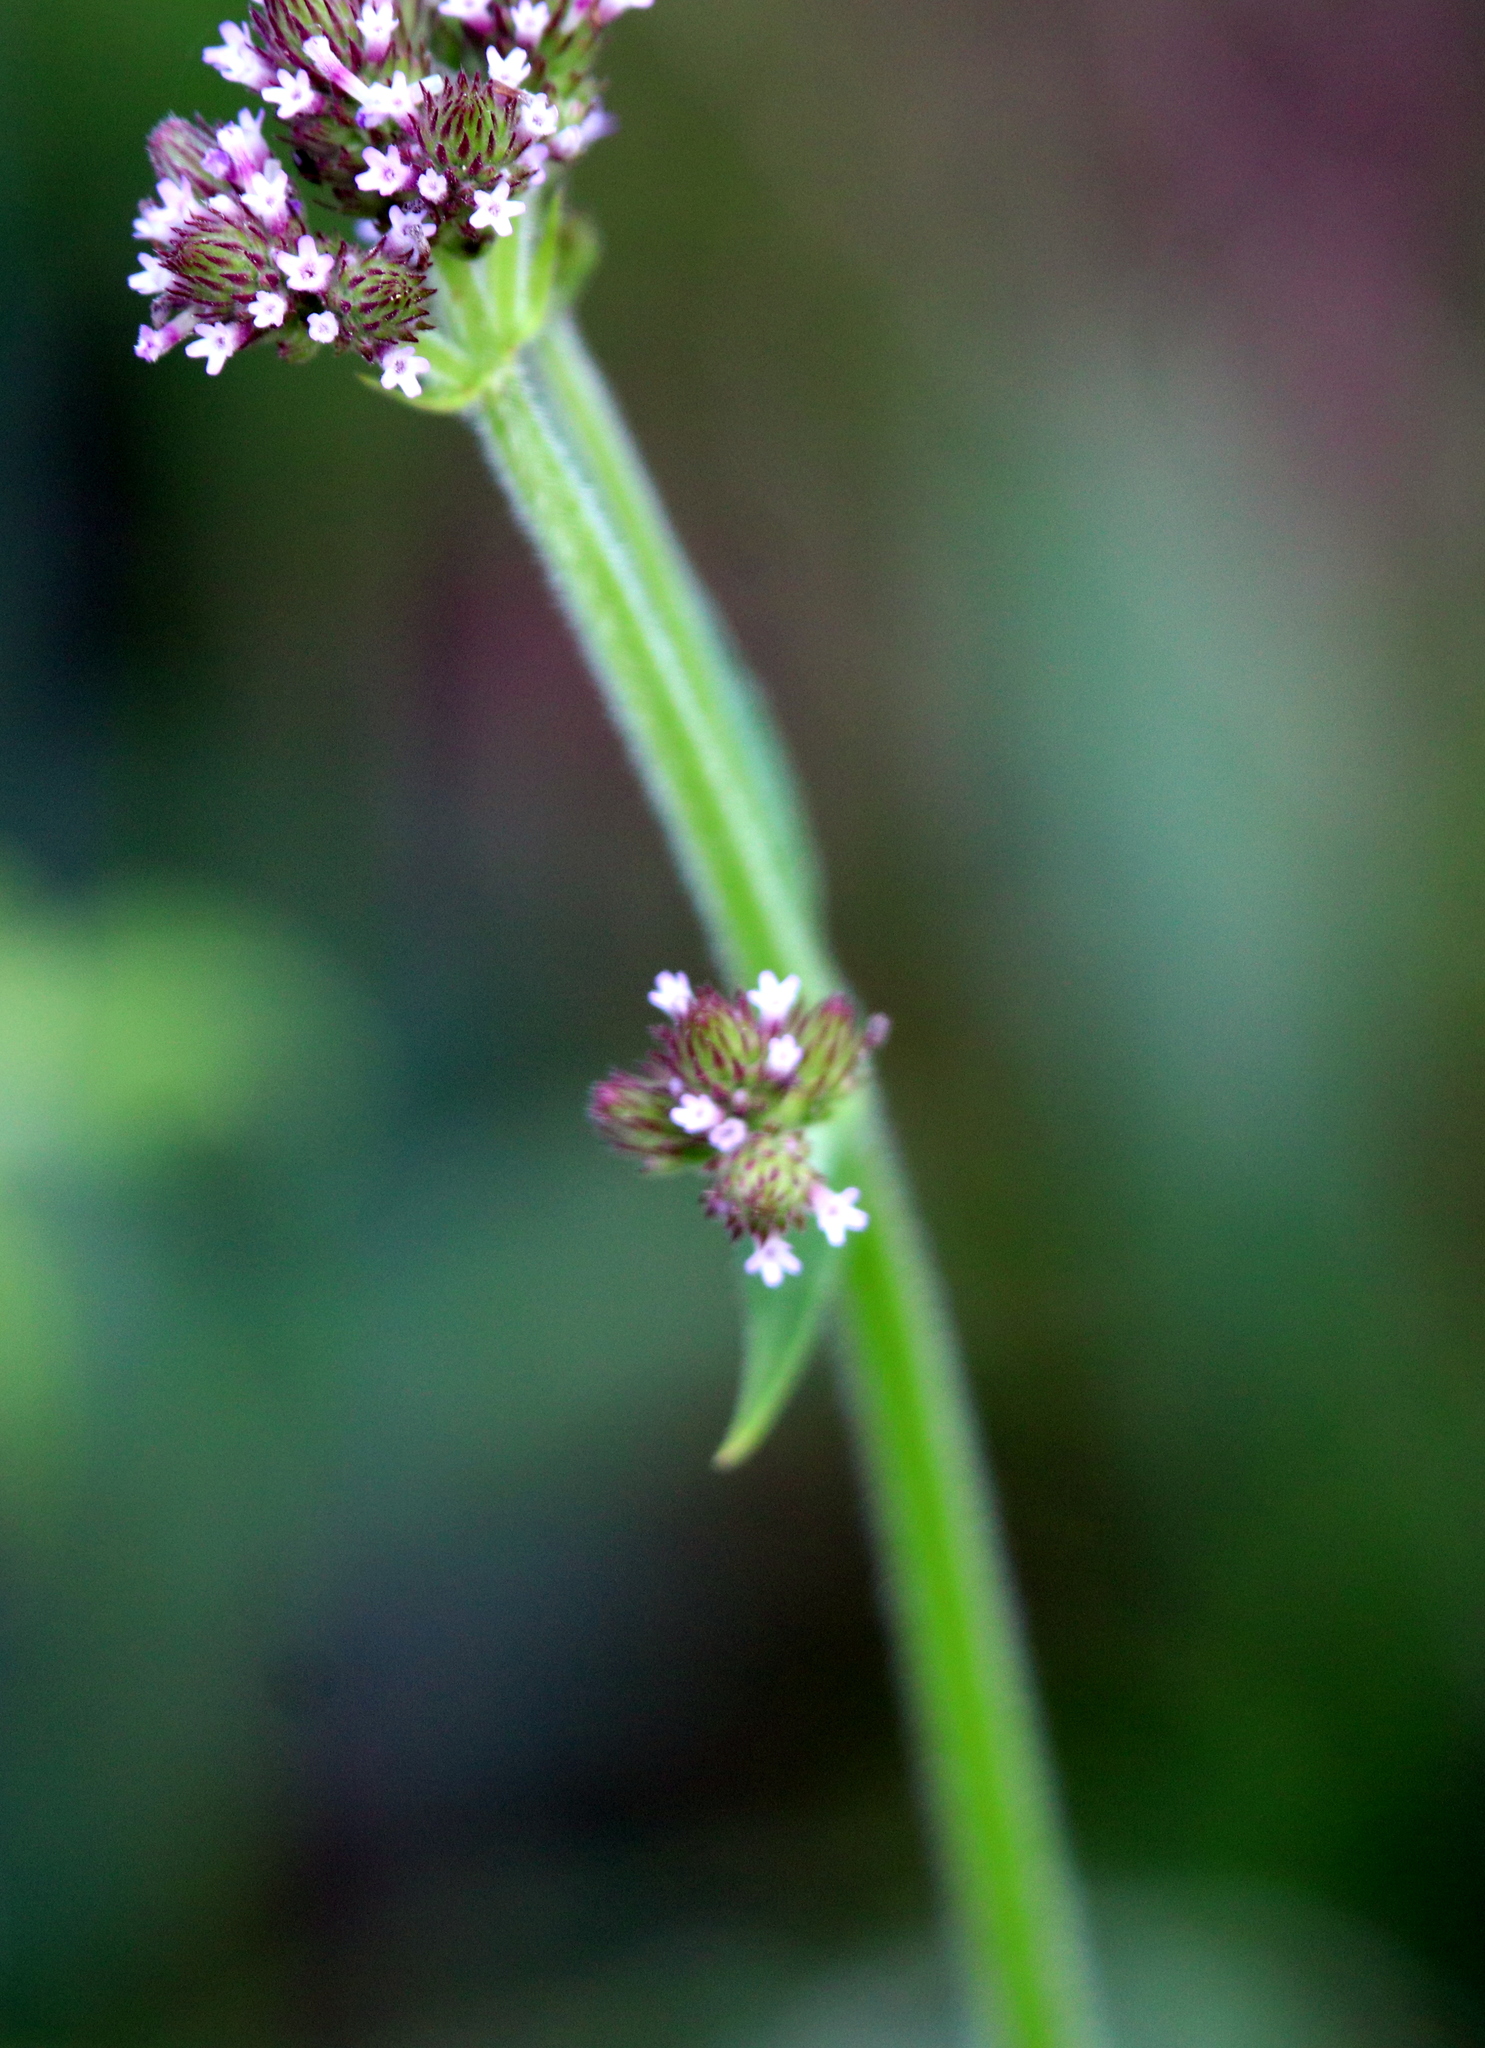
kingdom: Plantae
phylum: Tracheophyta
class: Magnoliopsida
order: Lamiales
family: Verbenaceae
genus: Verbena
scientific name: Verbena incompta
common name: Purpletop vervain
